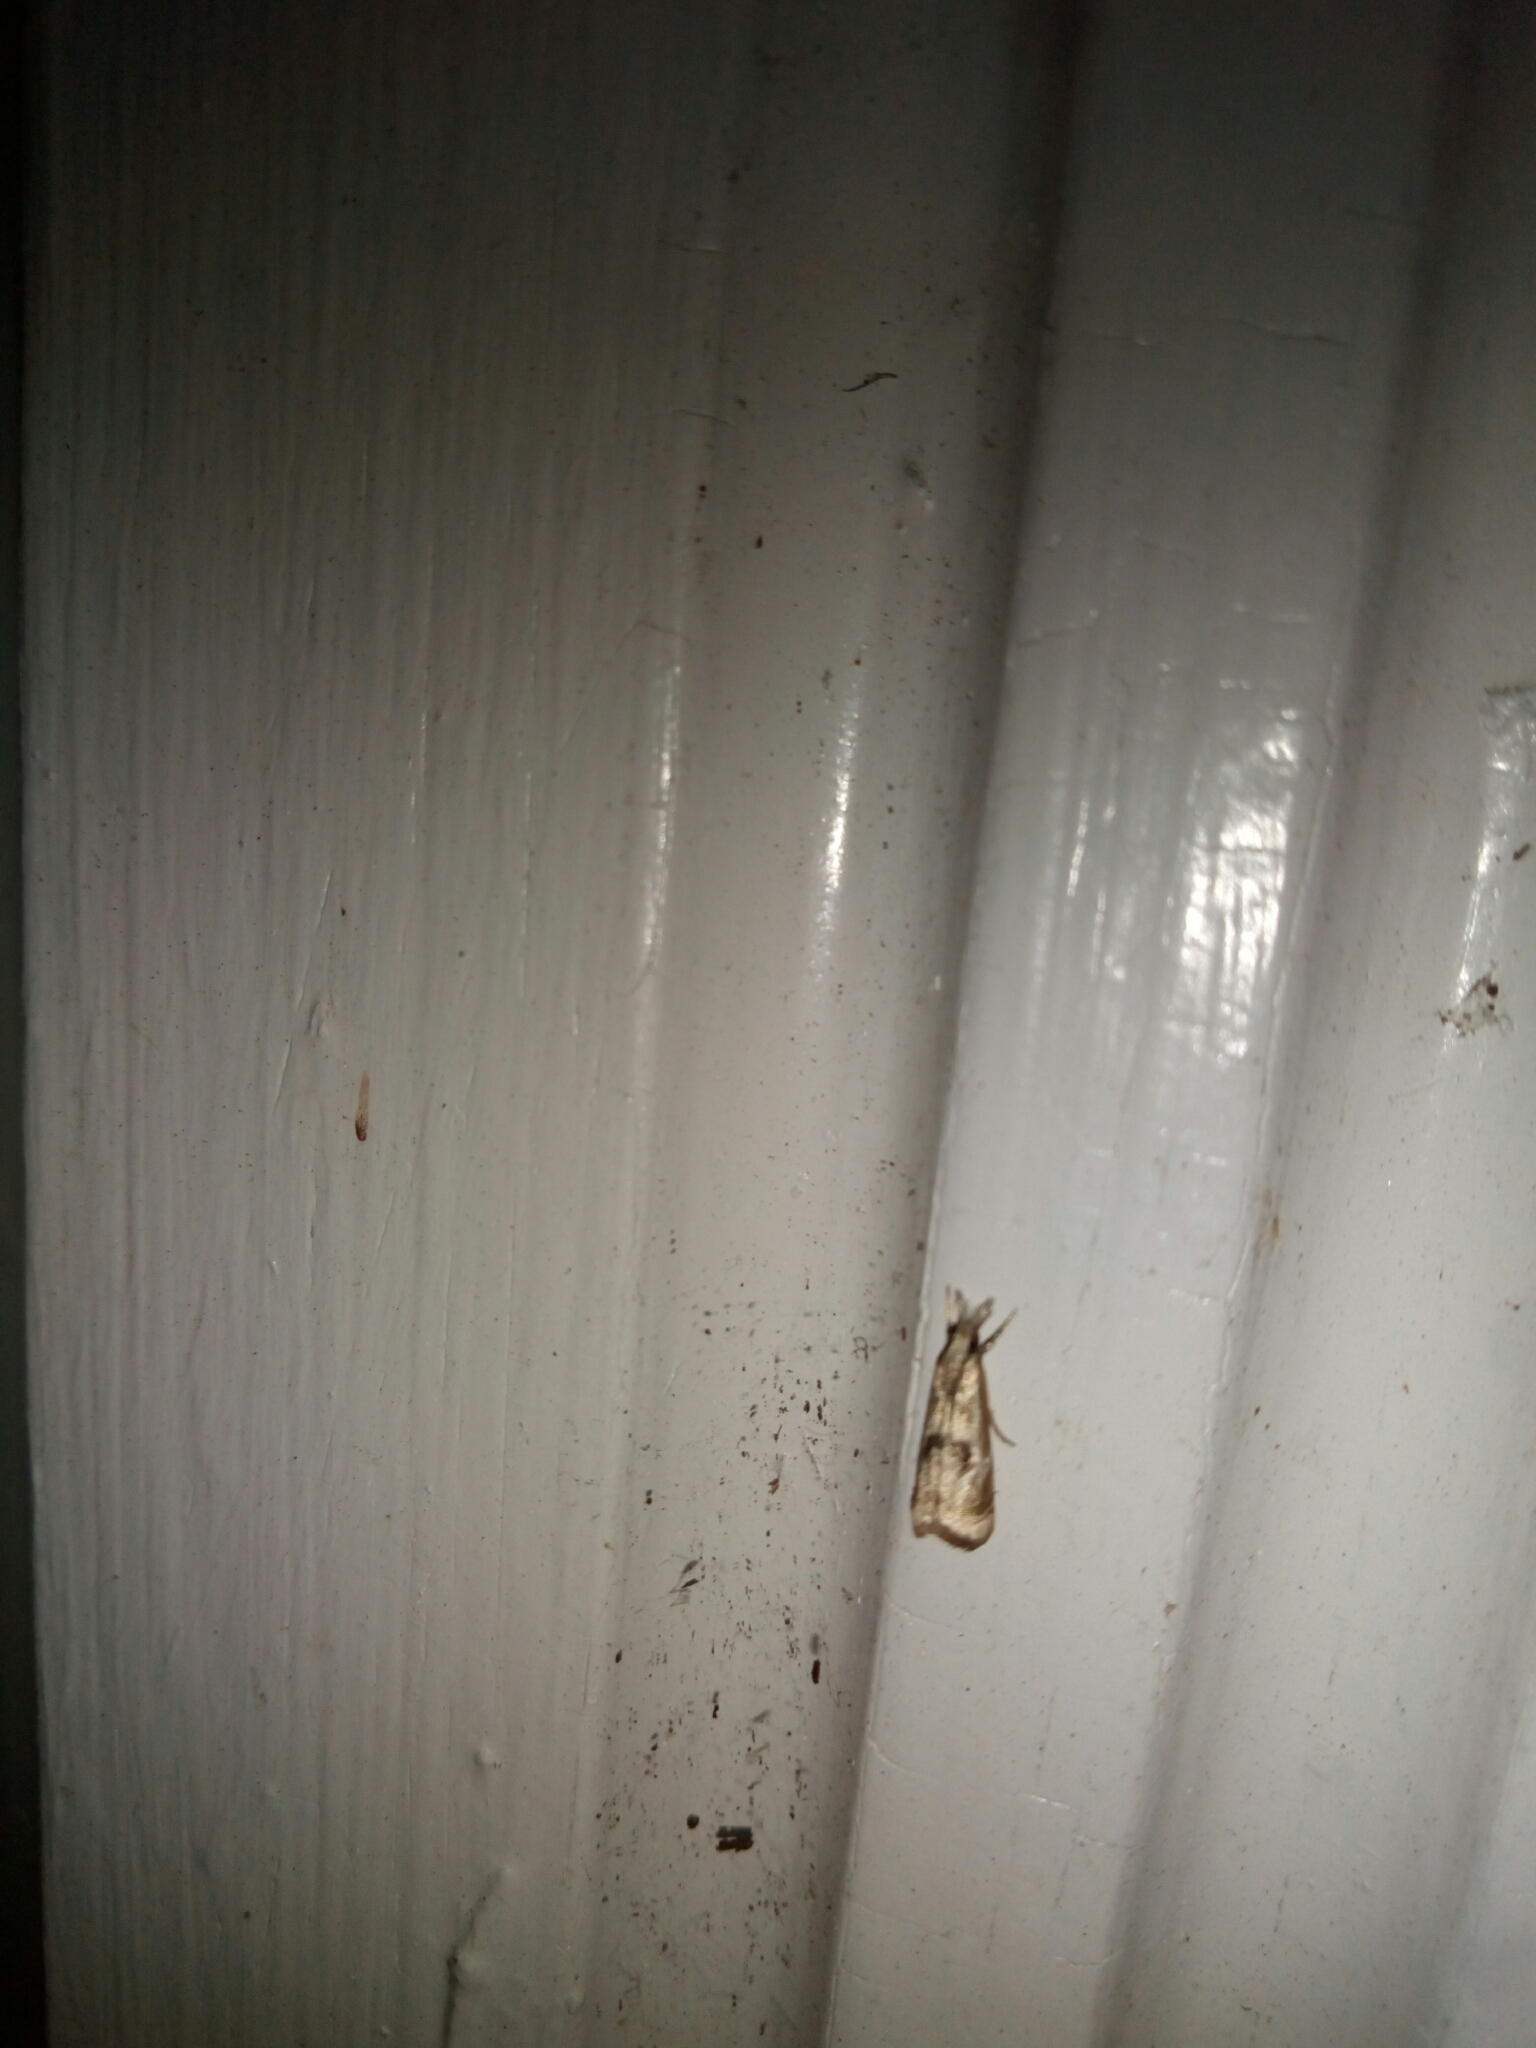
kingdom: Animalia
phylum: Arthropoda
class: Insecta
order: Lepidoptera
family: Crambidae
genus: Microcrambus
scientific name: Microcrambus elegans
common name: Elegant grass-veneer
